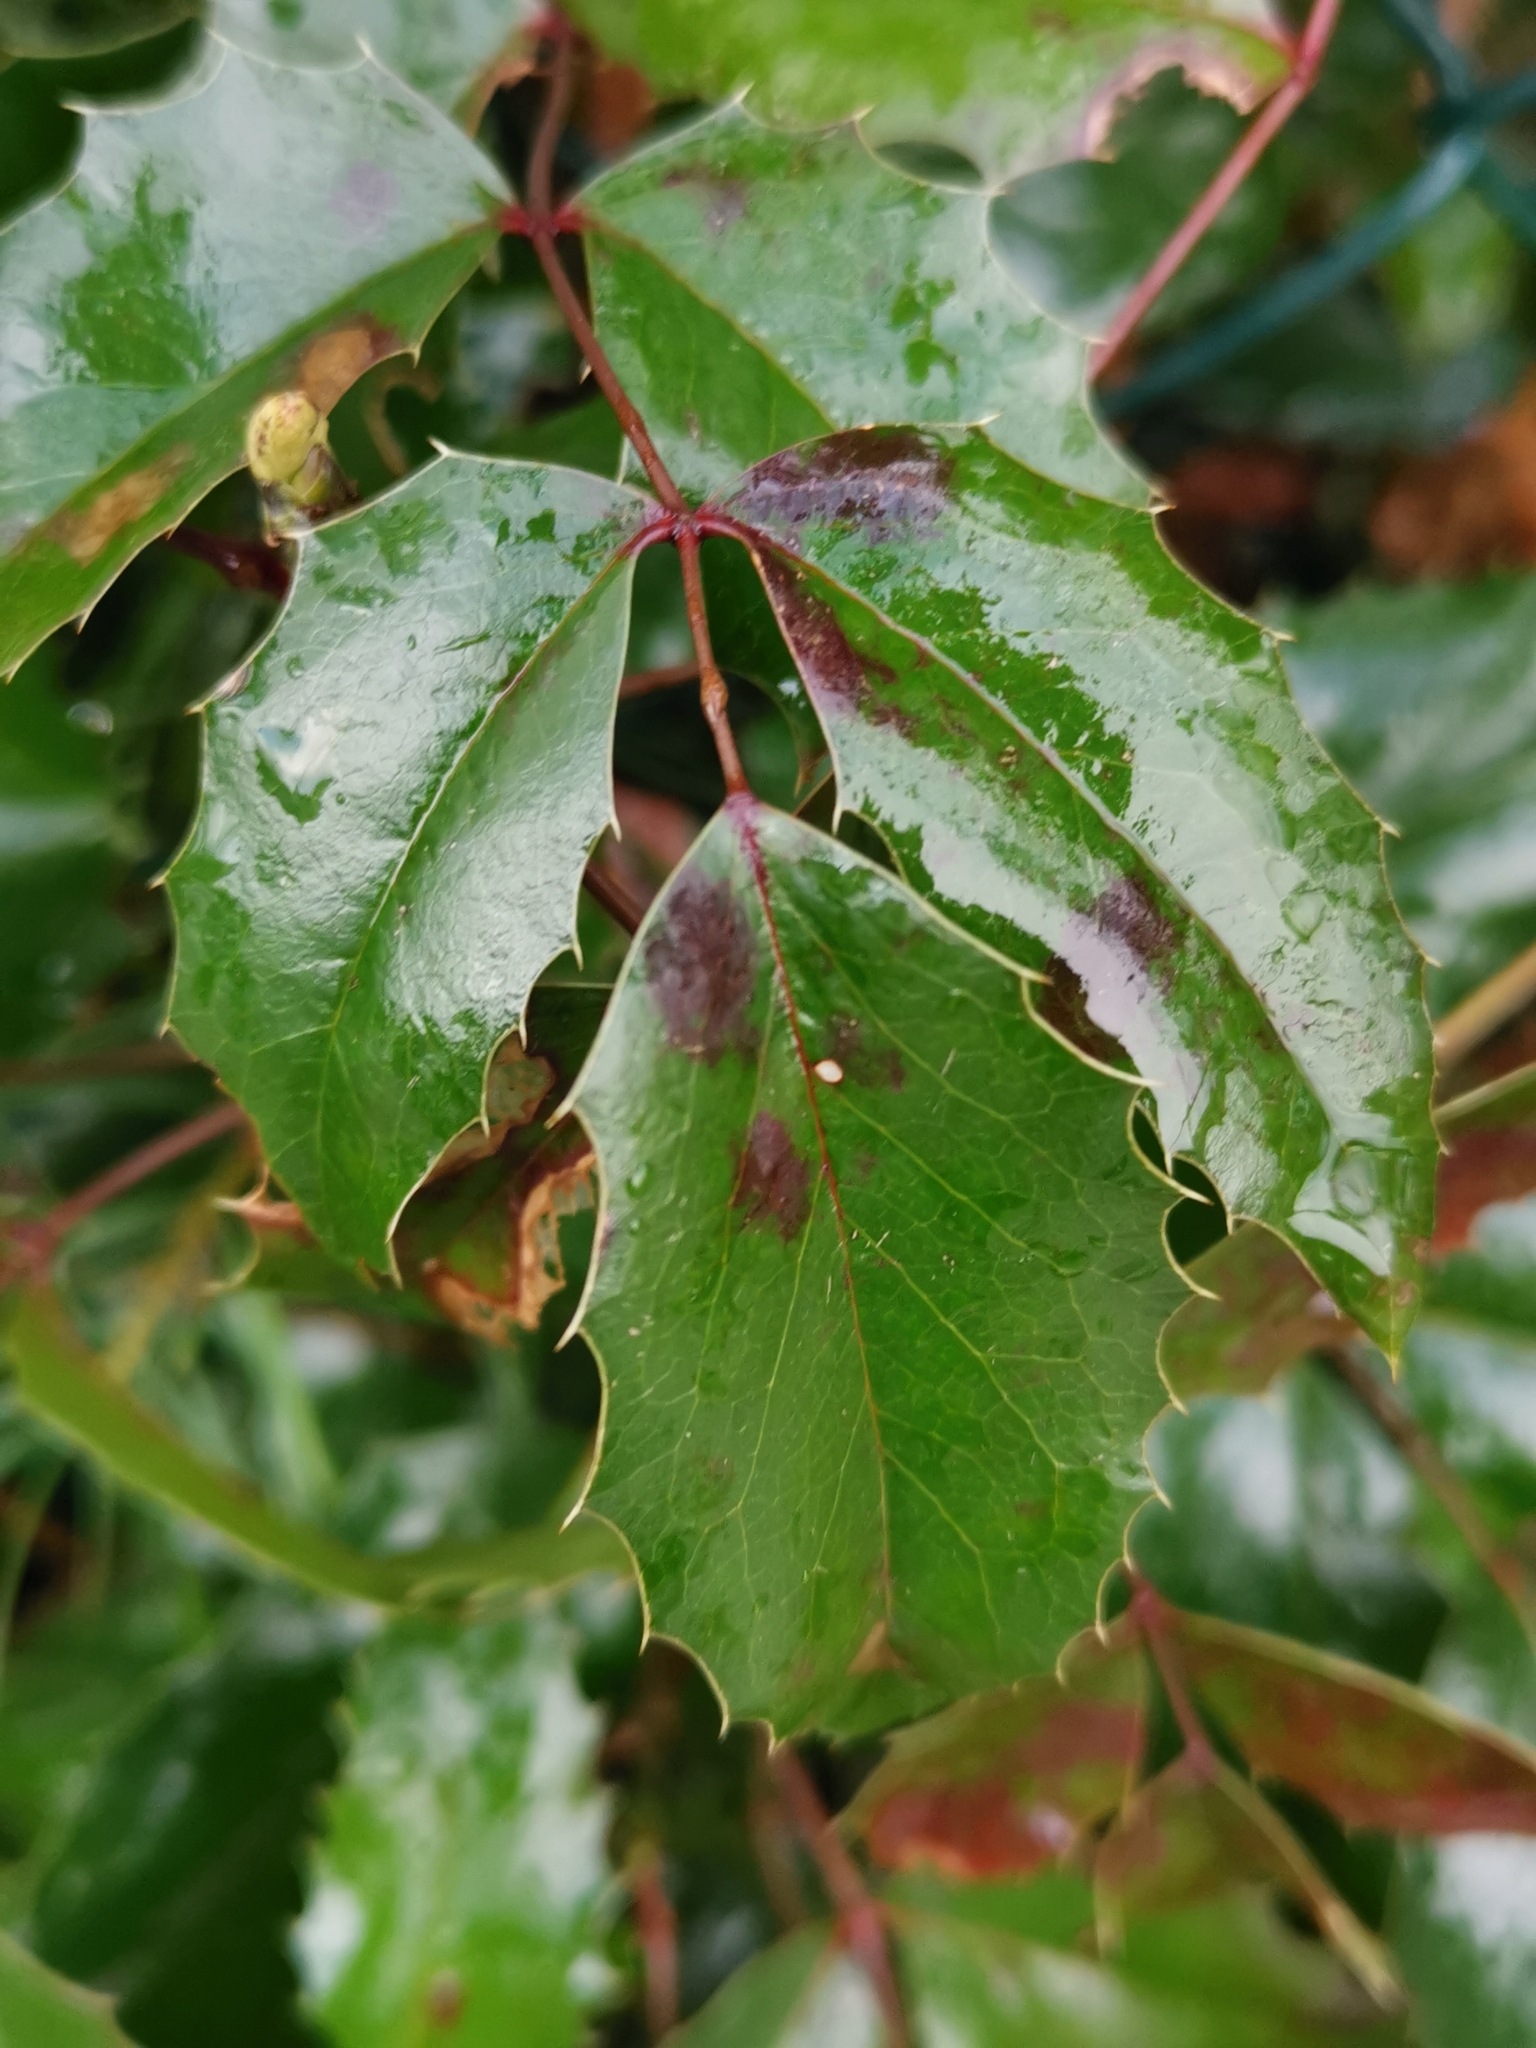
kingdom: Plantae
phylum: Tracheophyta
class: Magnoliopsida
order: Ranunculales
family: Berberidaceae
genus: Mahonia
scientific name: Mahonia aquifolium
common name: Oregon-grape
